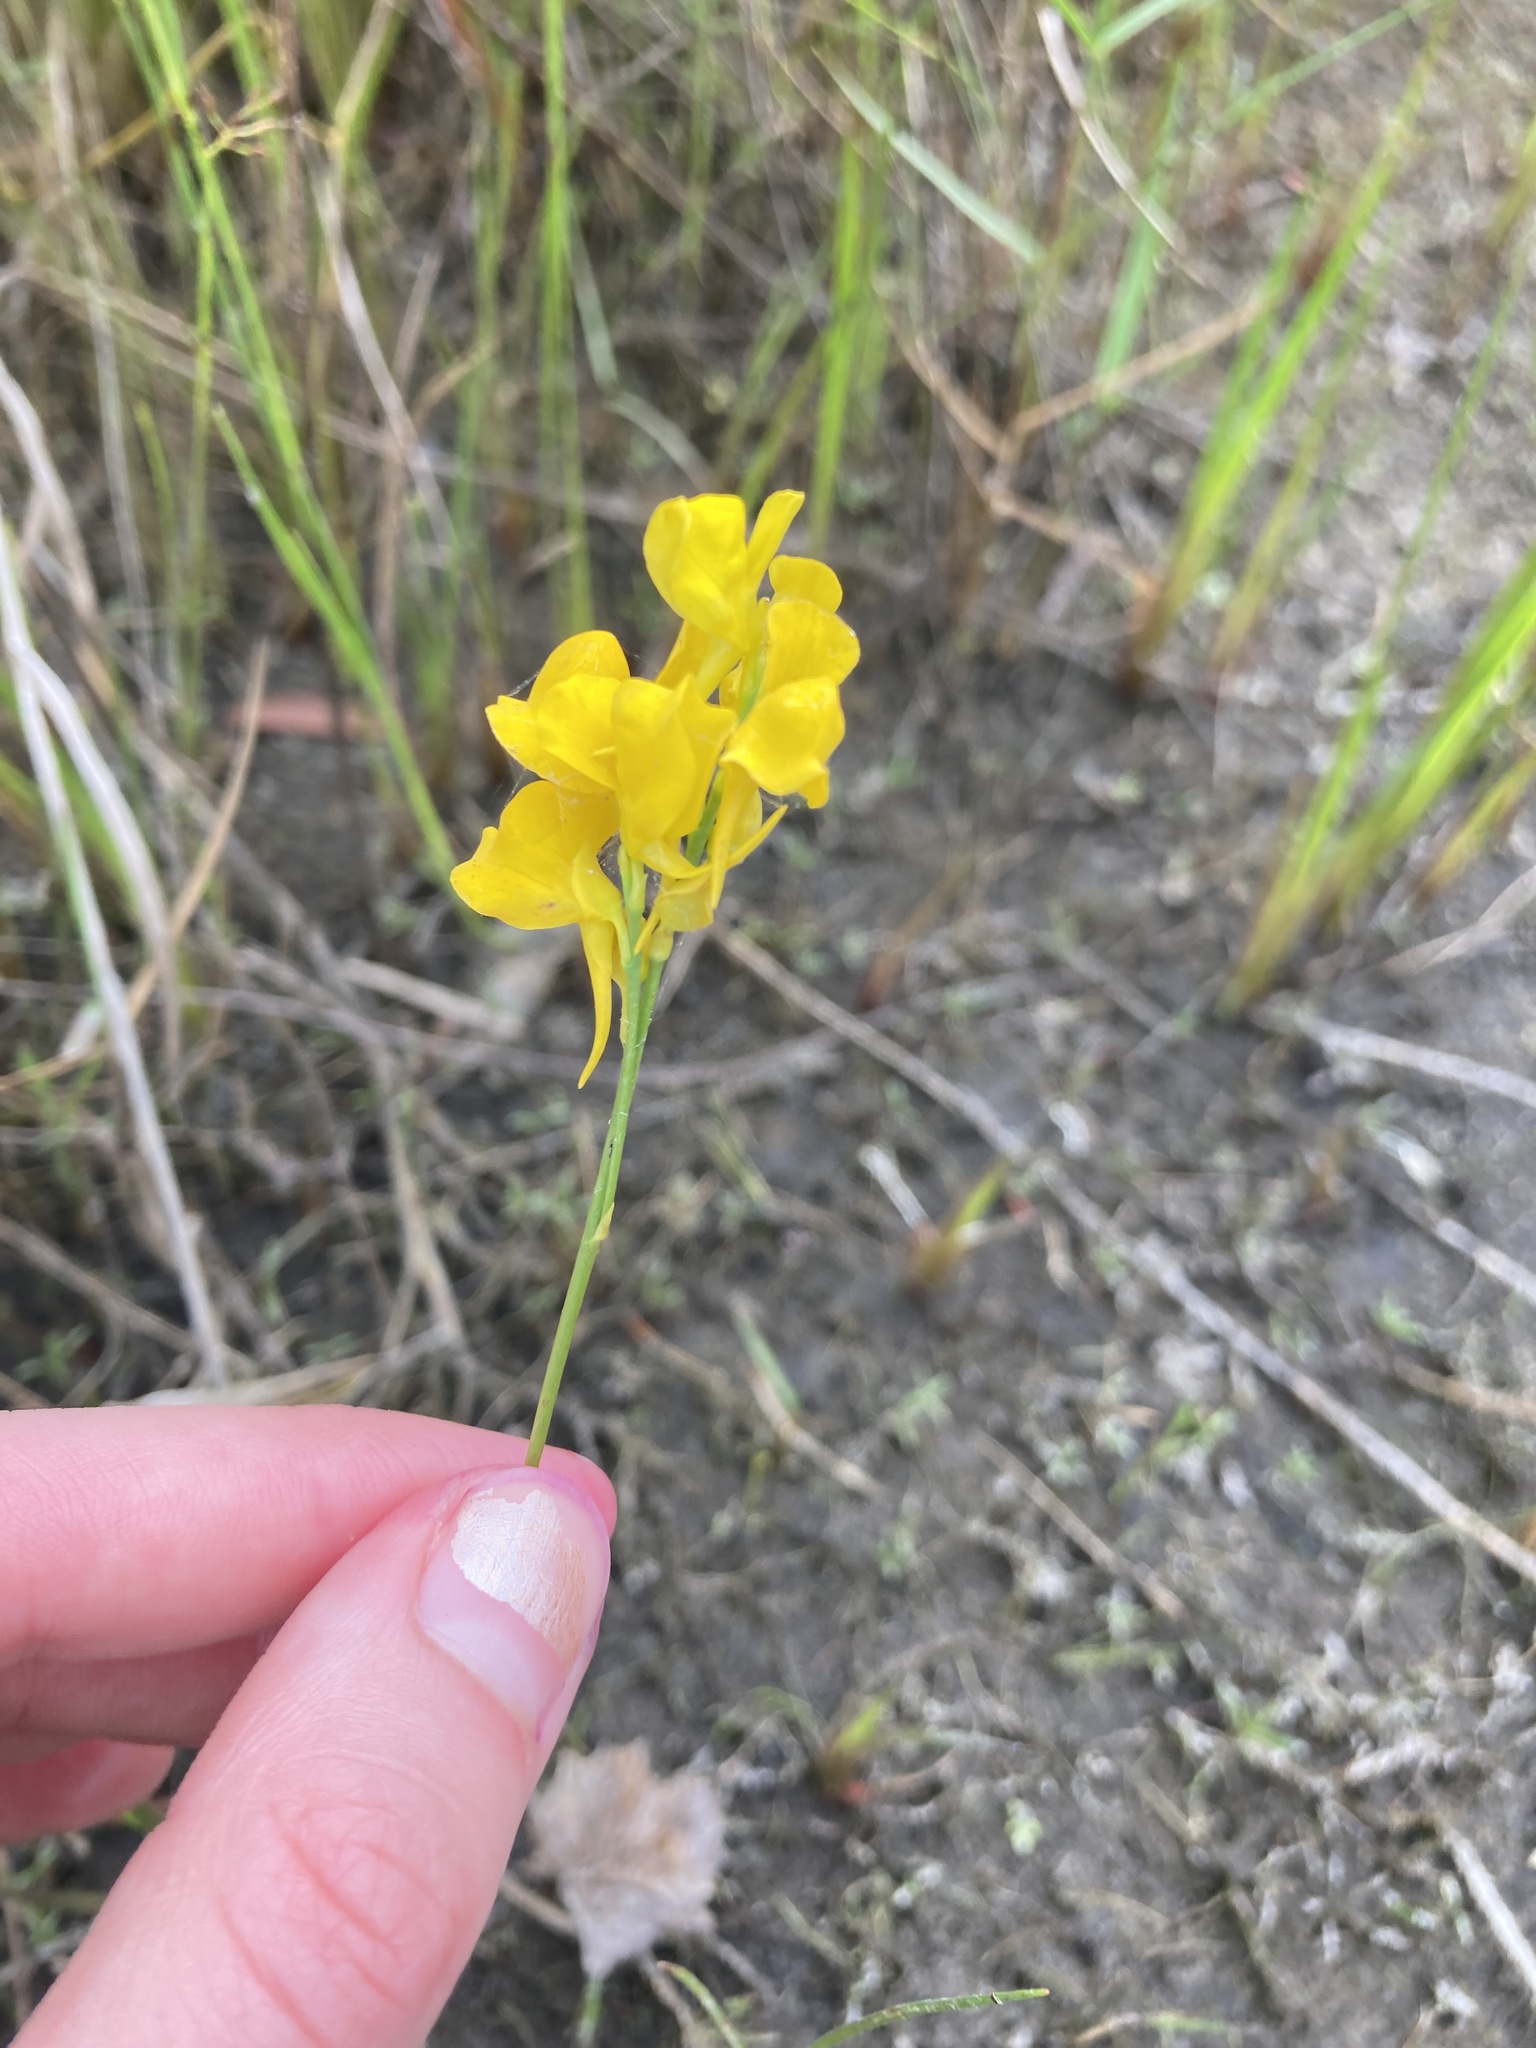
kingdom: Plantae
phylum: Tracheophyta
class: Magnoliopsida
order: Lamiales
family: Lentibulariaceae
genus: Utricularia
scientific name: Utricularia cornuta
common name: Horned bladderwort
